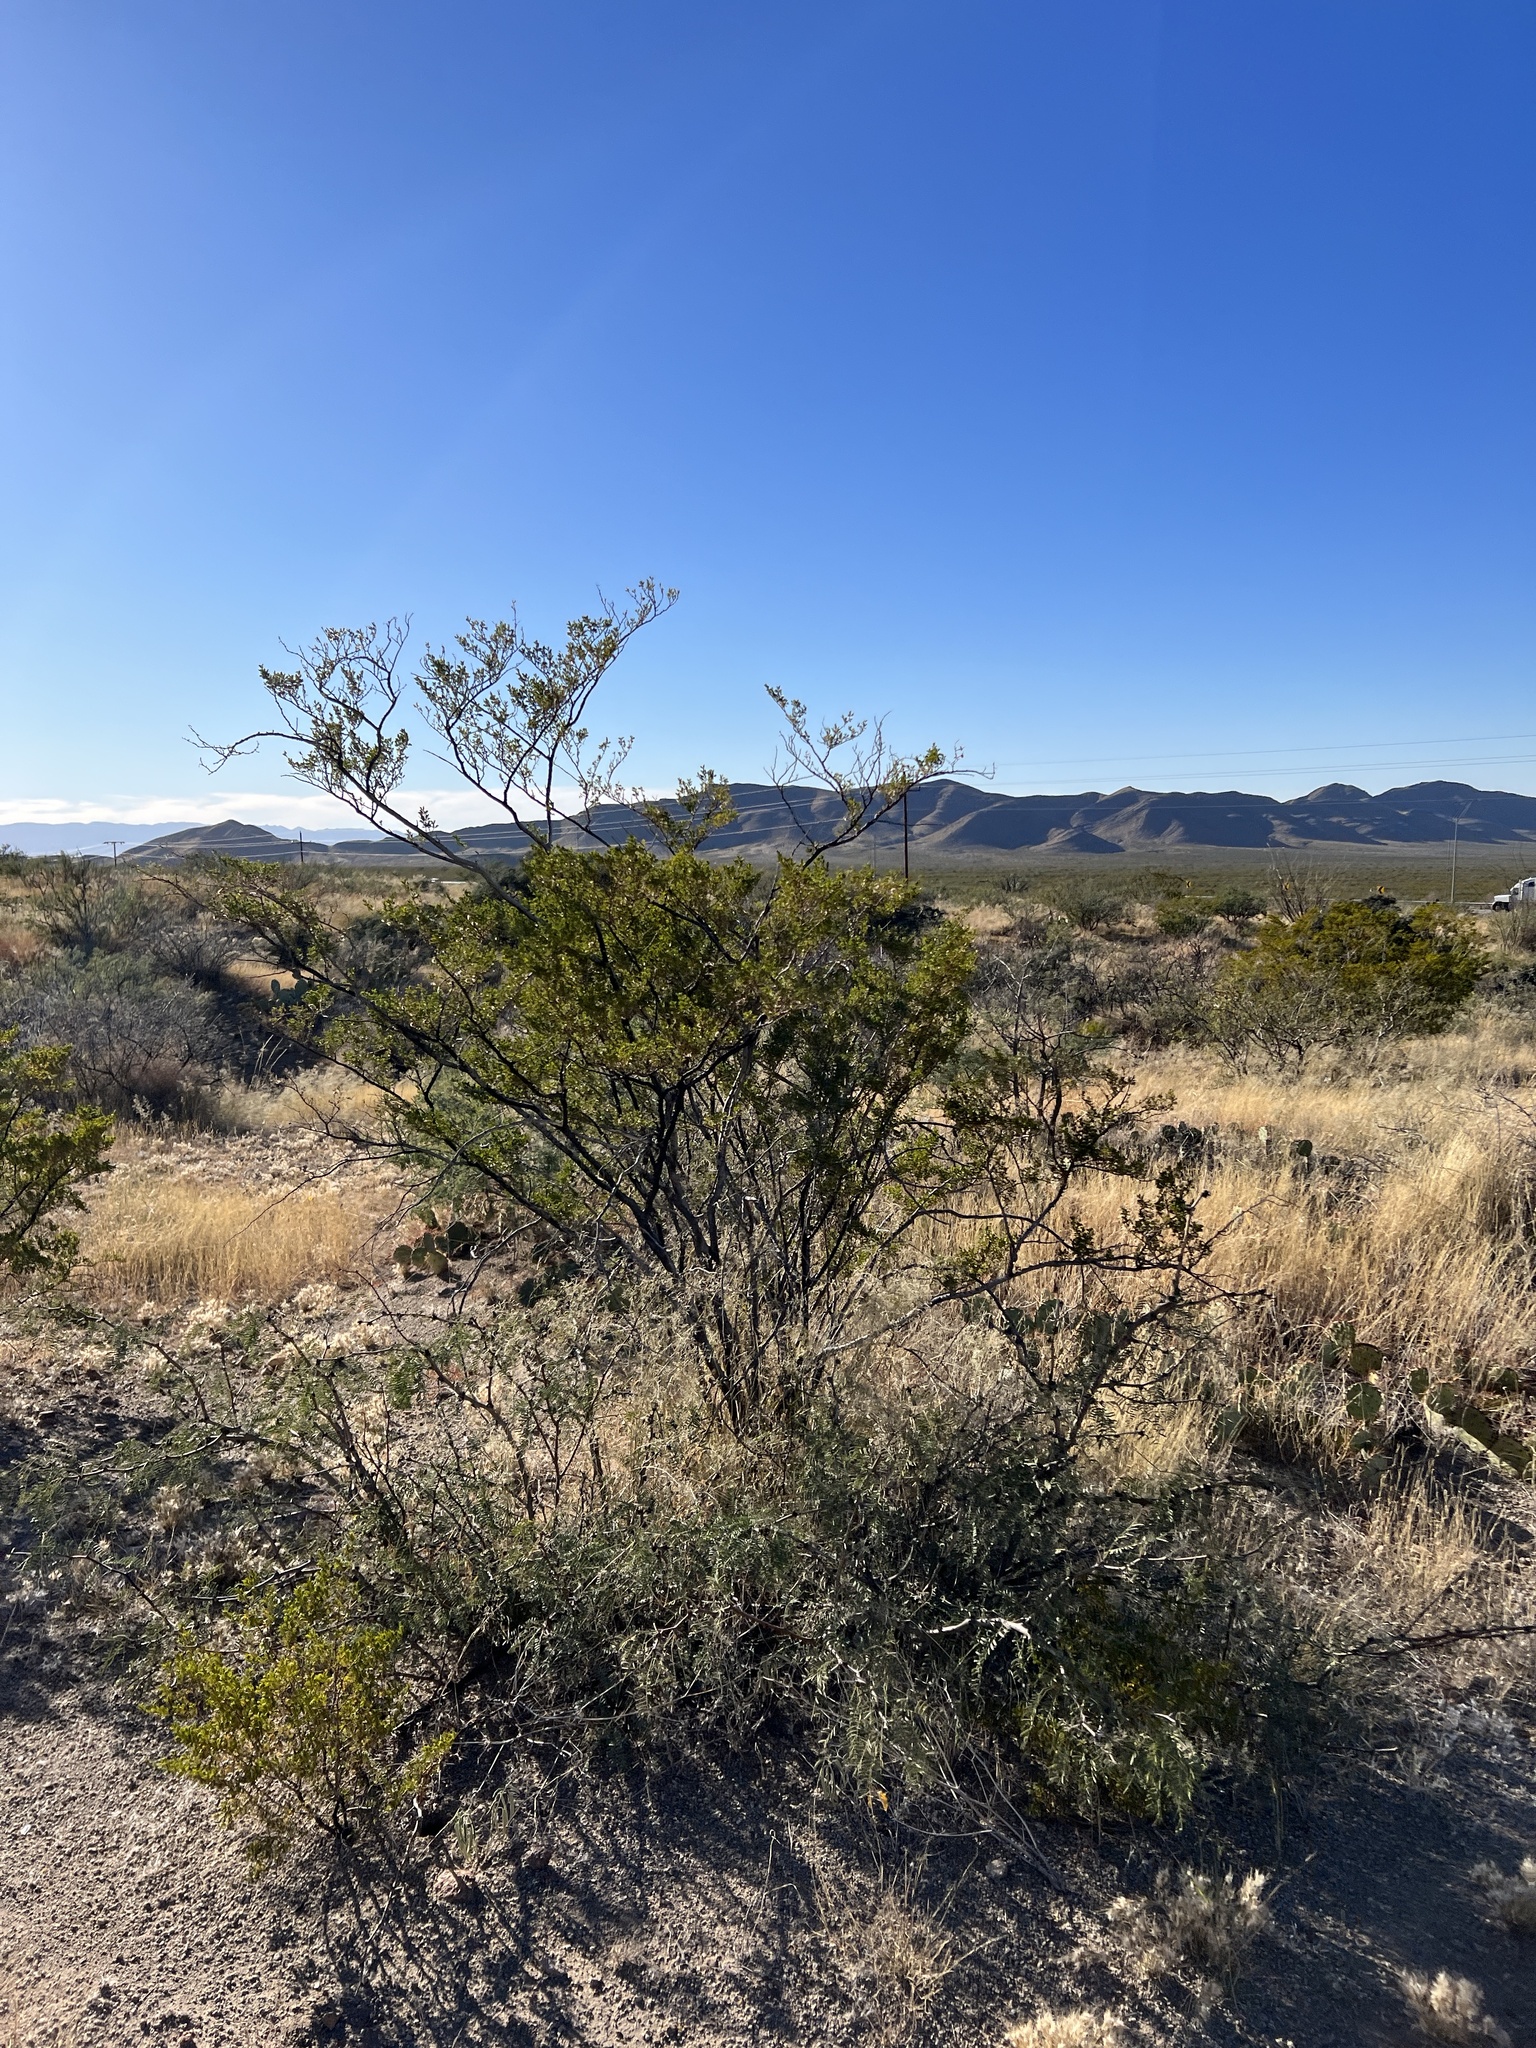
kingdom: Plantae
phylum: Tracheophyta
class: Magnoliopsida
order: Zygophyllales
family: Zygophyllaceae
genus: Larrea
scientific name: Larrea tridentata
